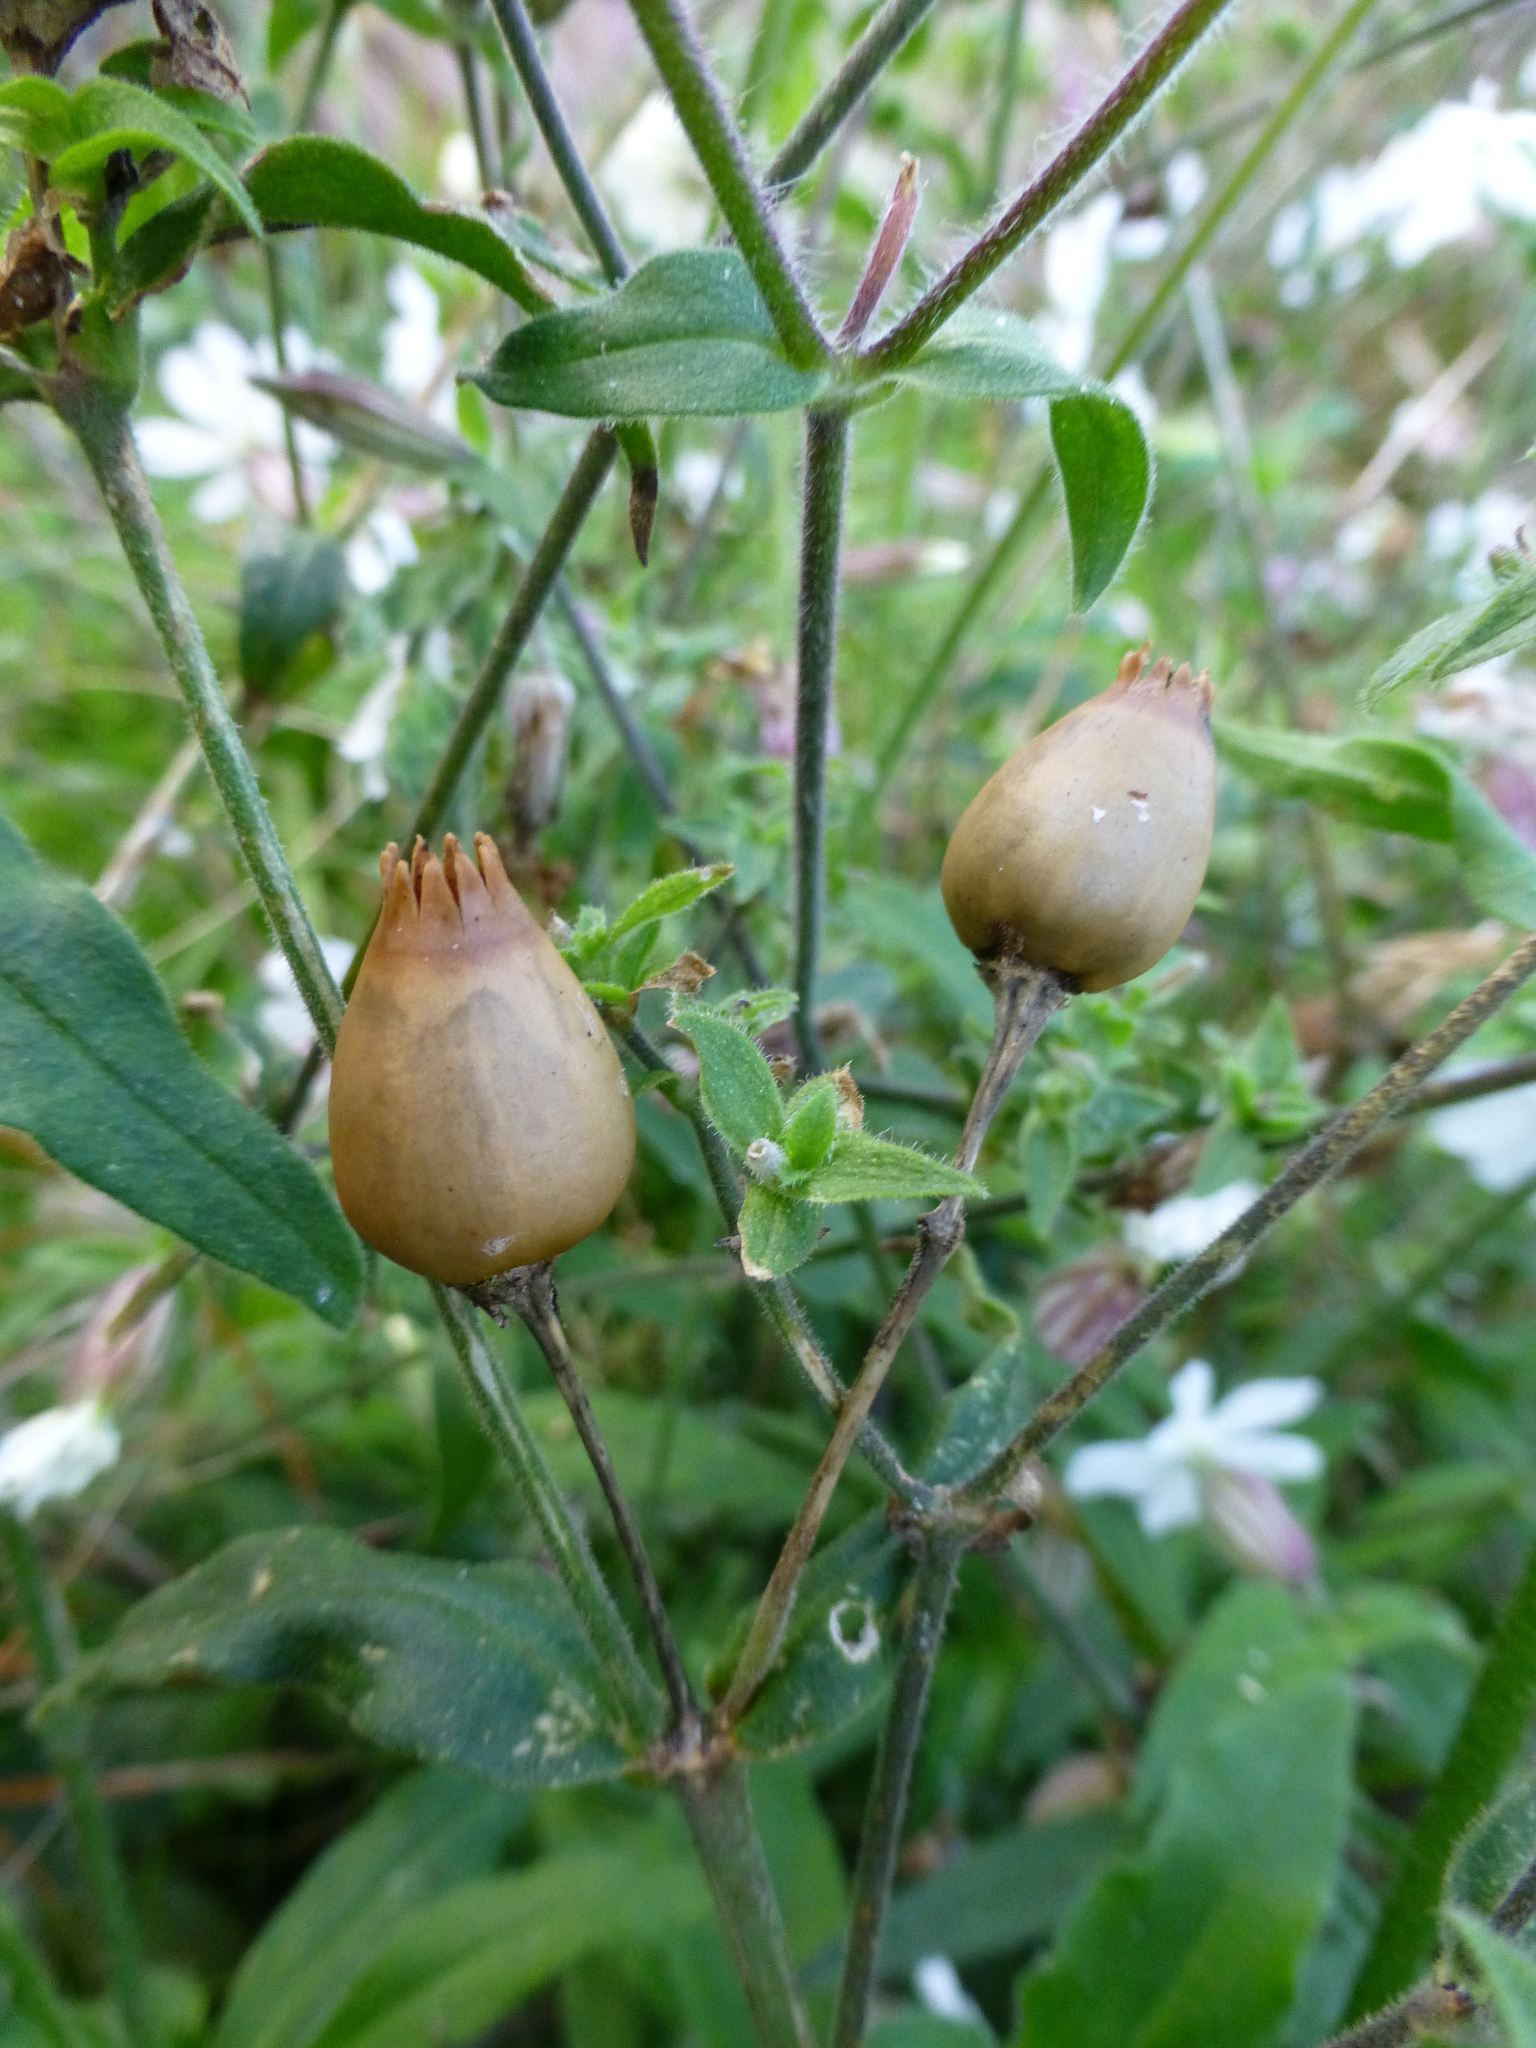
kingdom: Plantae
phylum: Tracheophyta
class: Magnoliopsida
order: Caryophyllales
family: Caryophyllaceae
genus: Silene
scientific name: Silene latifolia
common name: White campion
